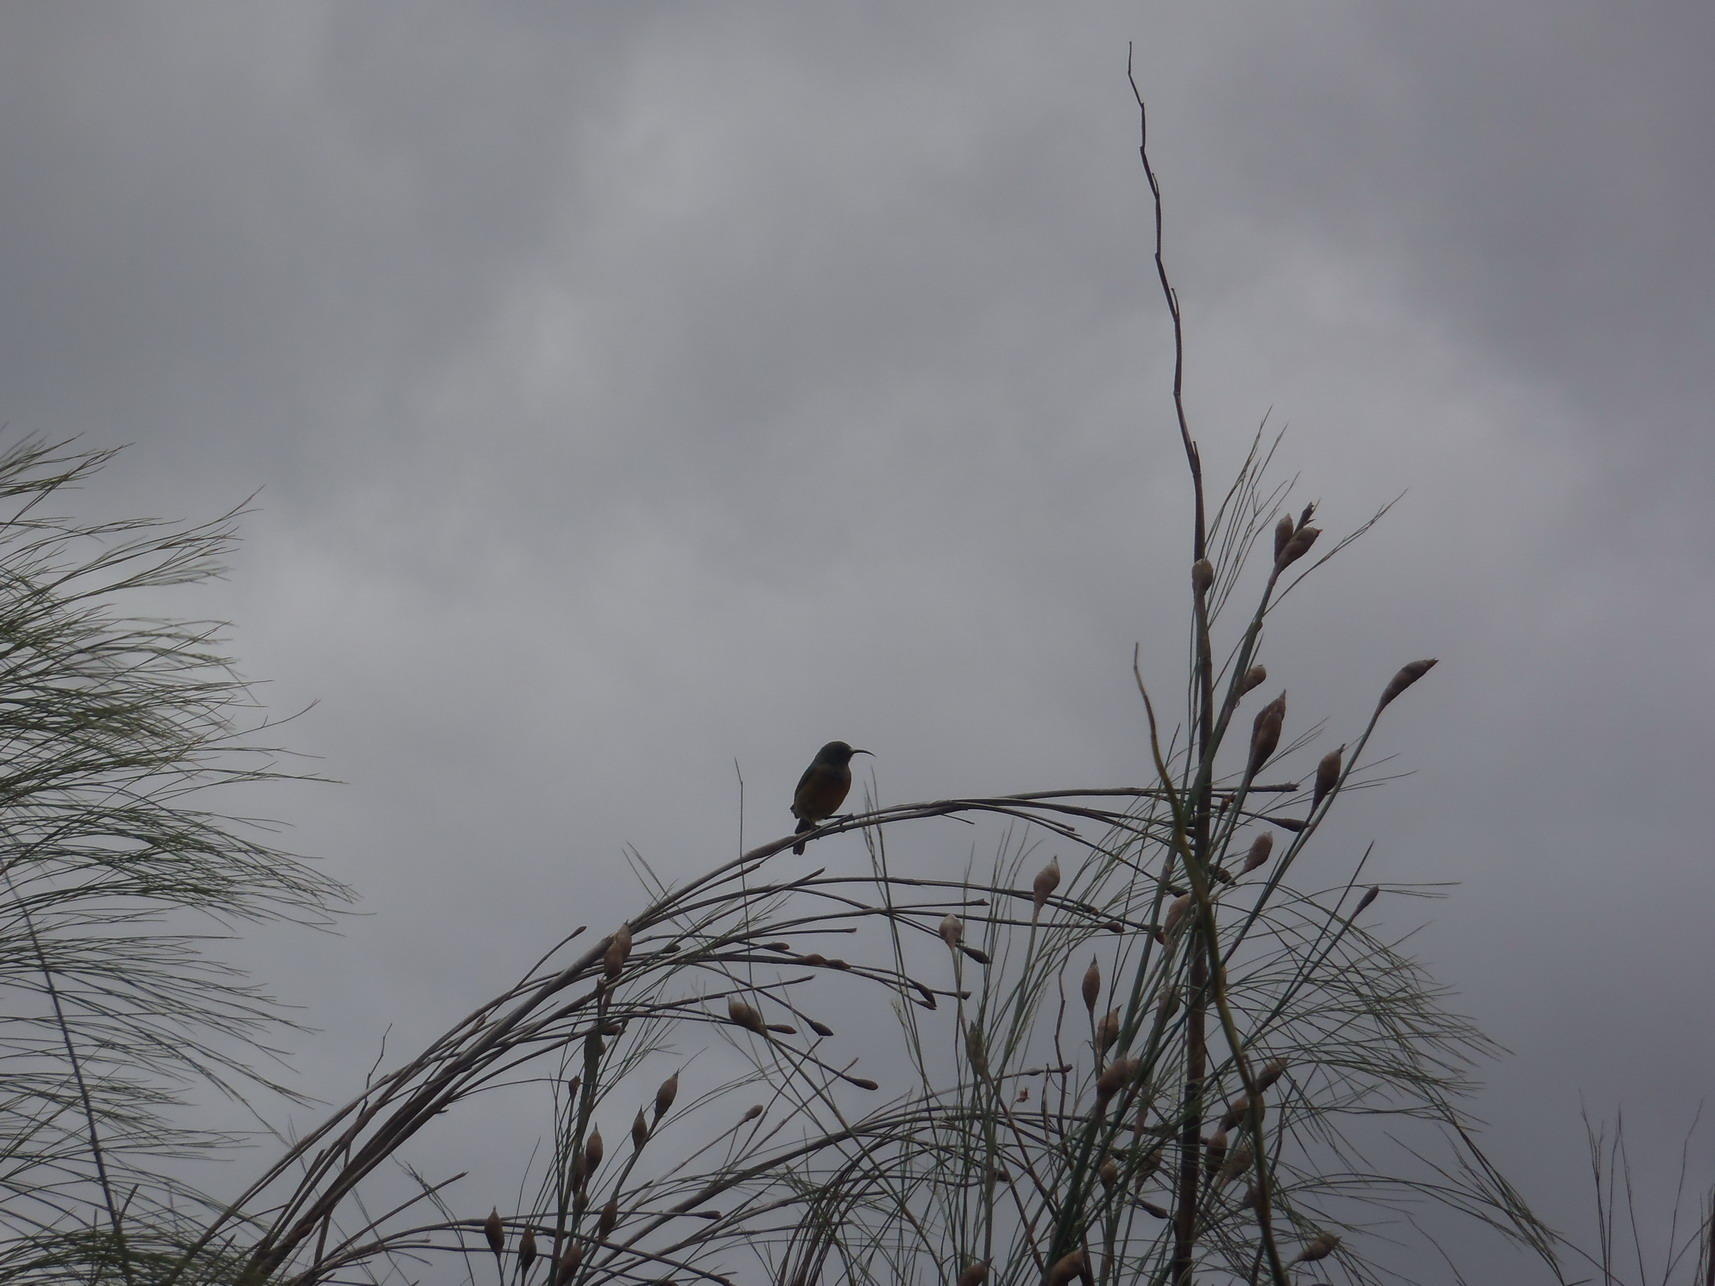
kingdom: Animalia
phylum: Chordata
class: Aves
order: Passeriformes
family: Nectariniidae
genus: Anthobaphes
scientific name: Anthobaphes violacea
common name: Orange-breasted sunbird
